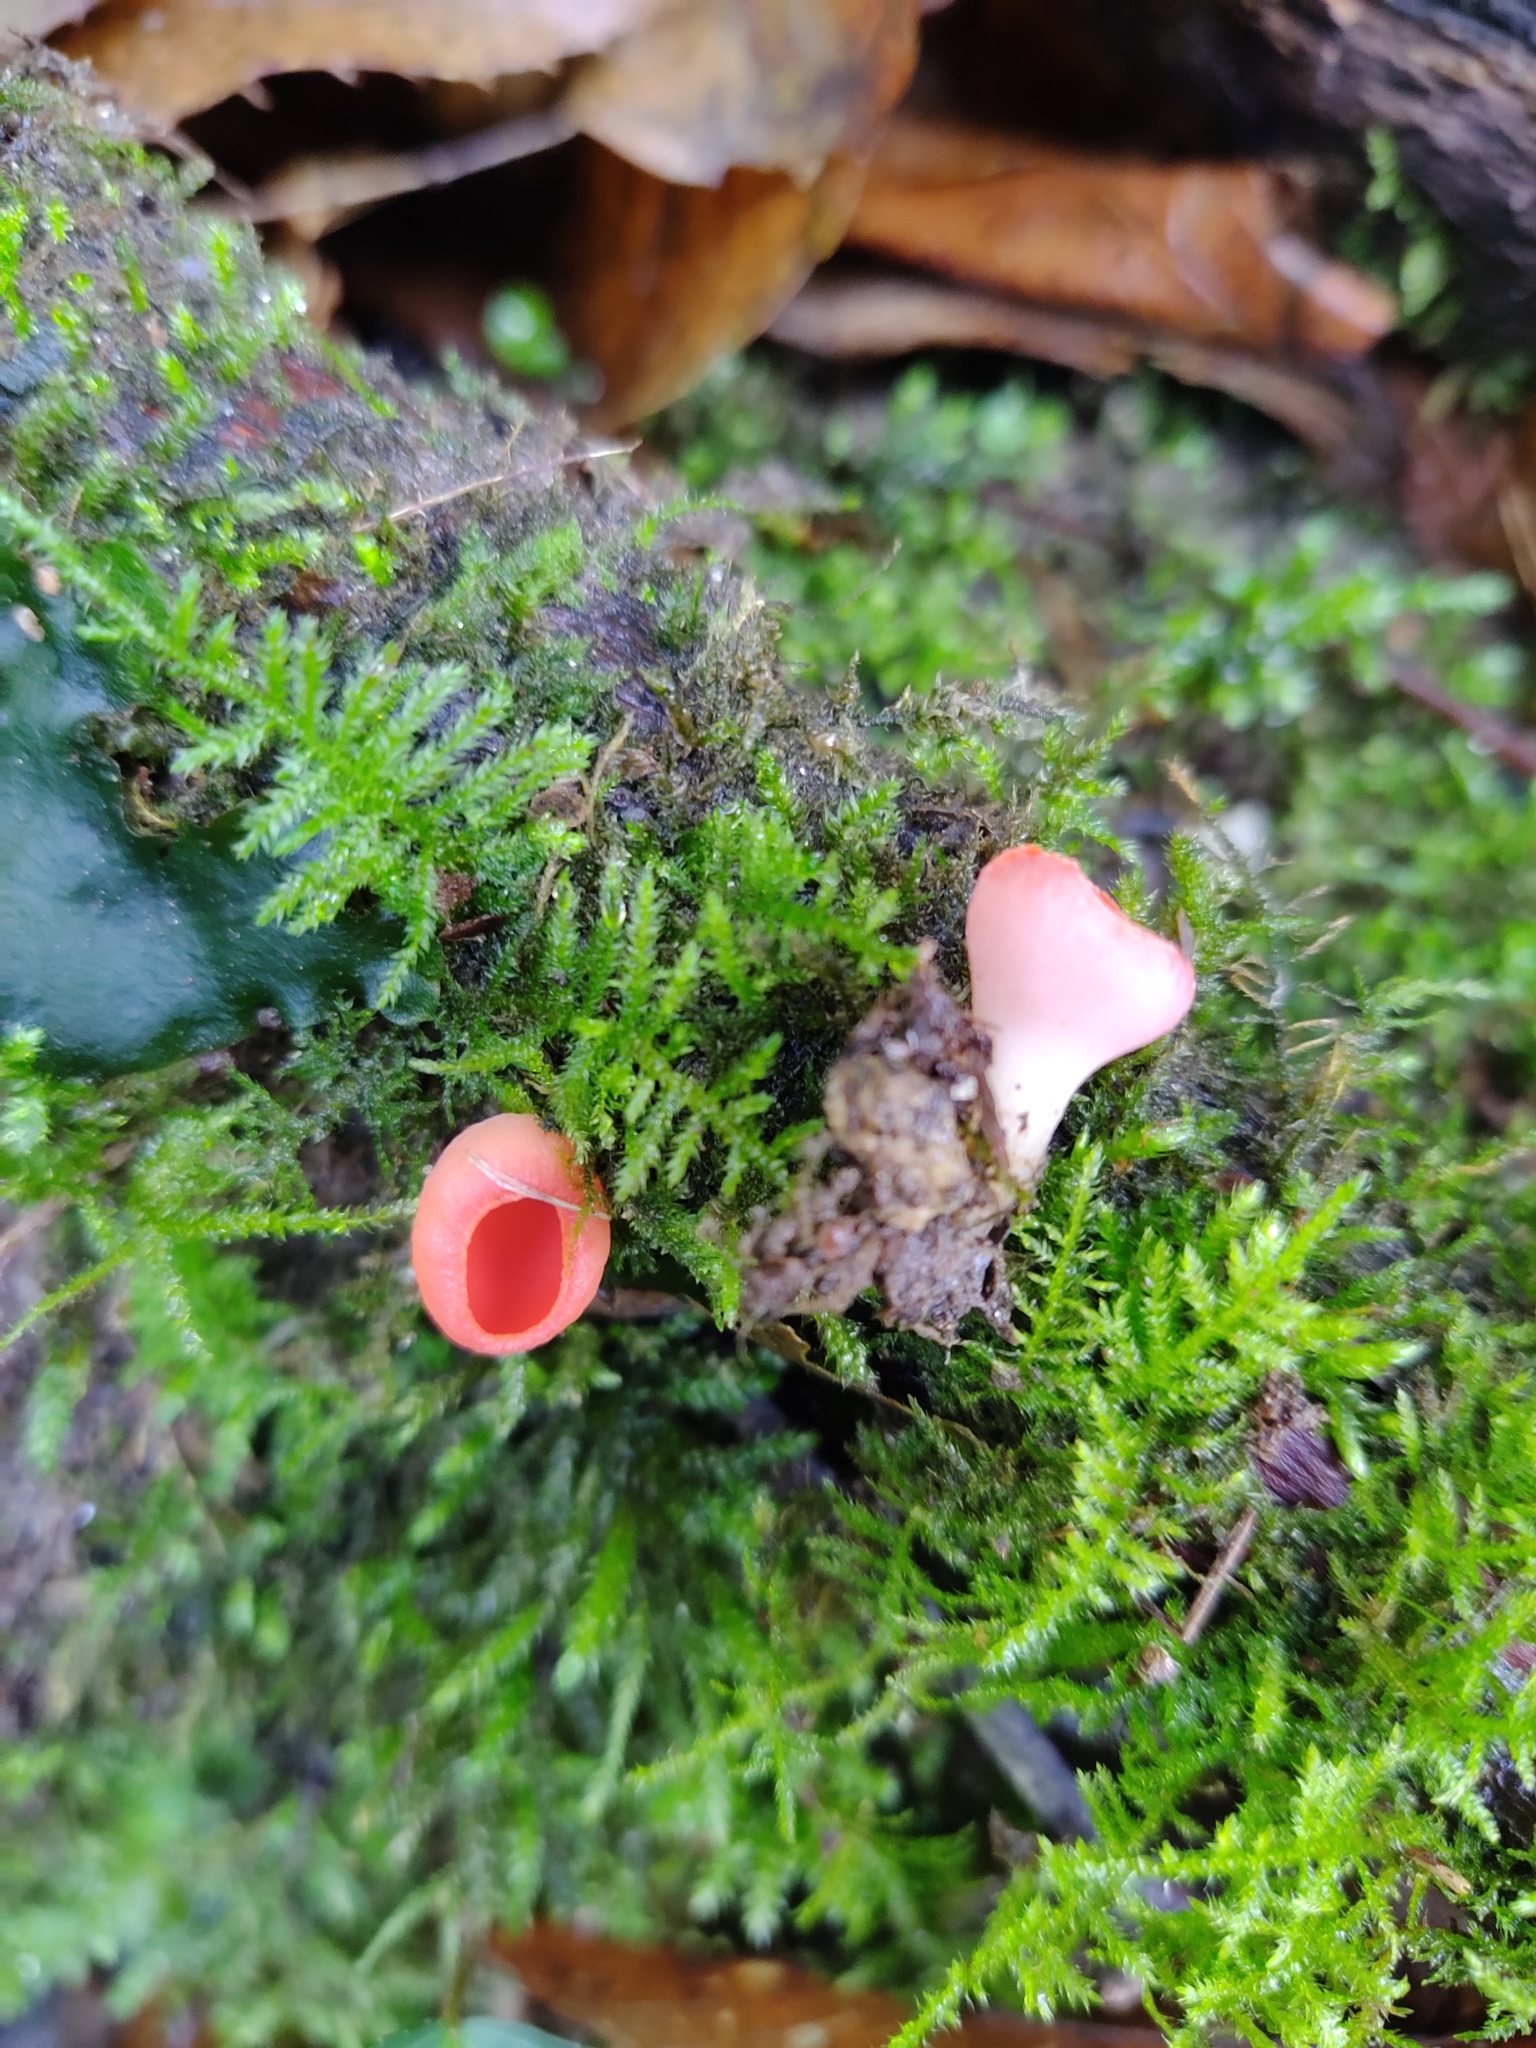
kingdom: Fungi
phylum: Ascomycota
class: Pezizomycetes
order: Pezizales
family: Sarcoscyphaceae
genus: Sarcoscypha
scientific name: Sarcoscypha
